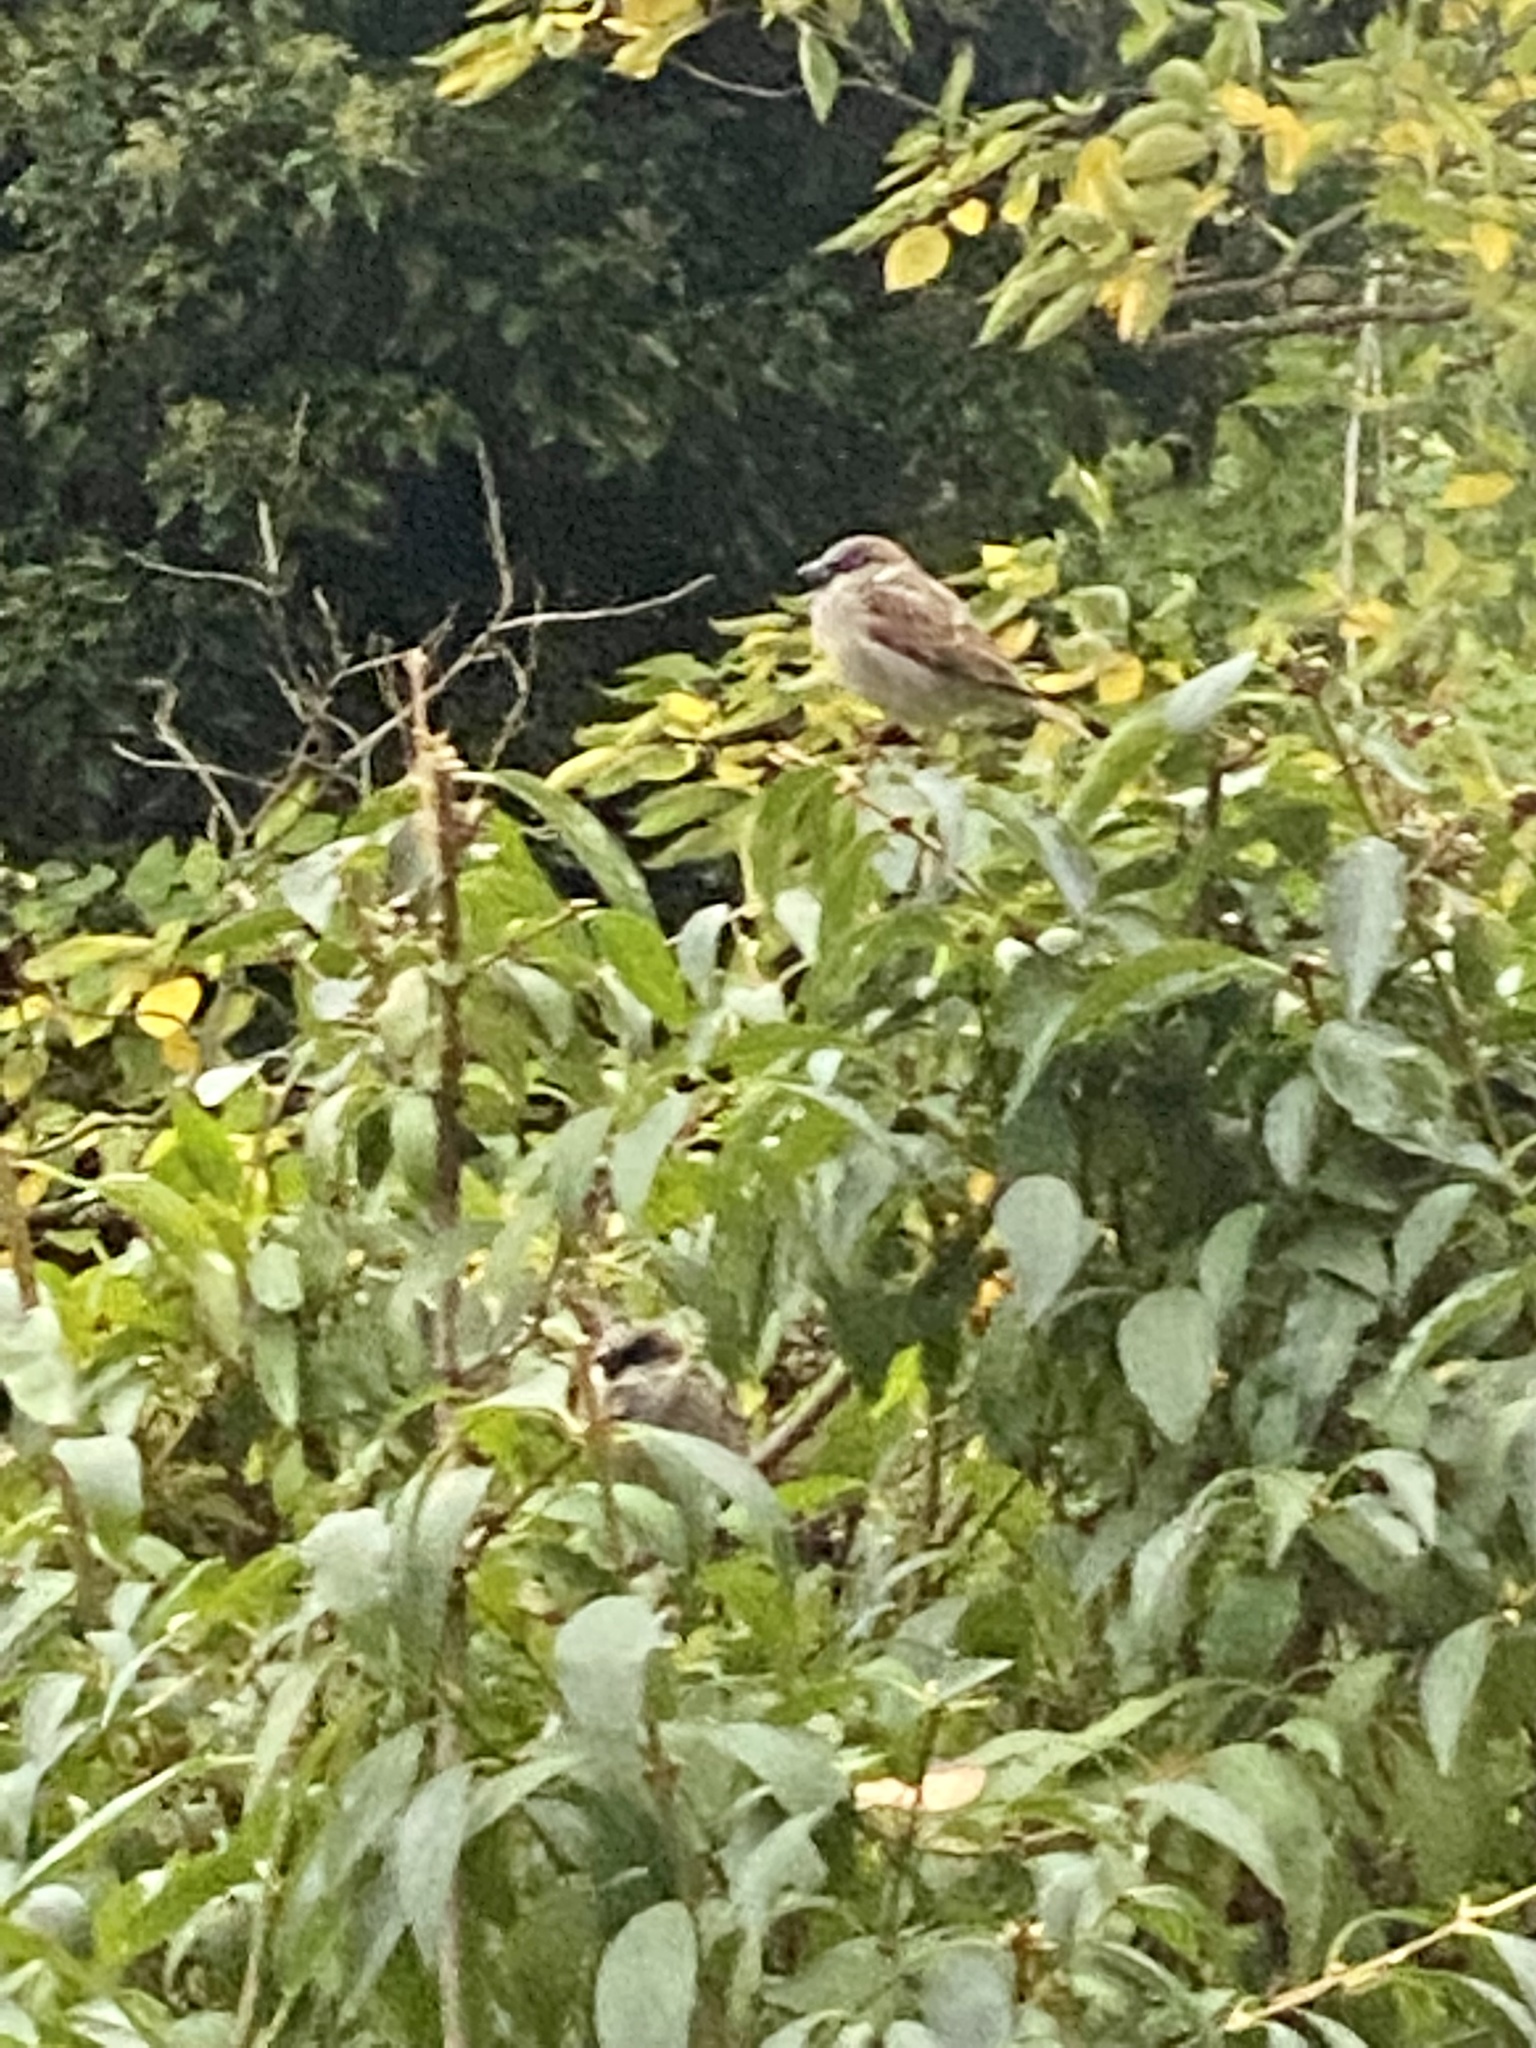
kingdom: Animalia
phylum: Chordata
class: Aves
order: Passeriformes
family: Passeridae
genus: Passer
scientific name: Passer domesticus
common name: House sparrow
